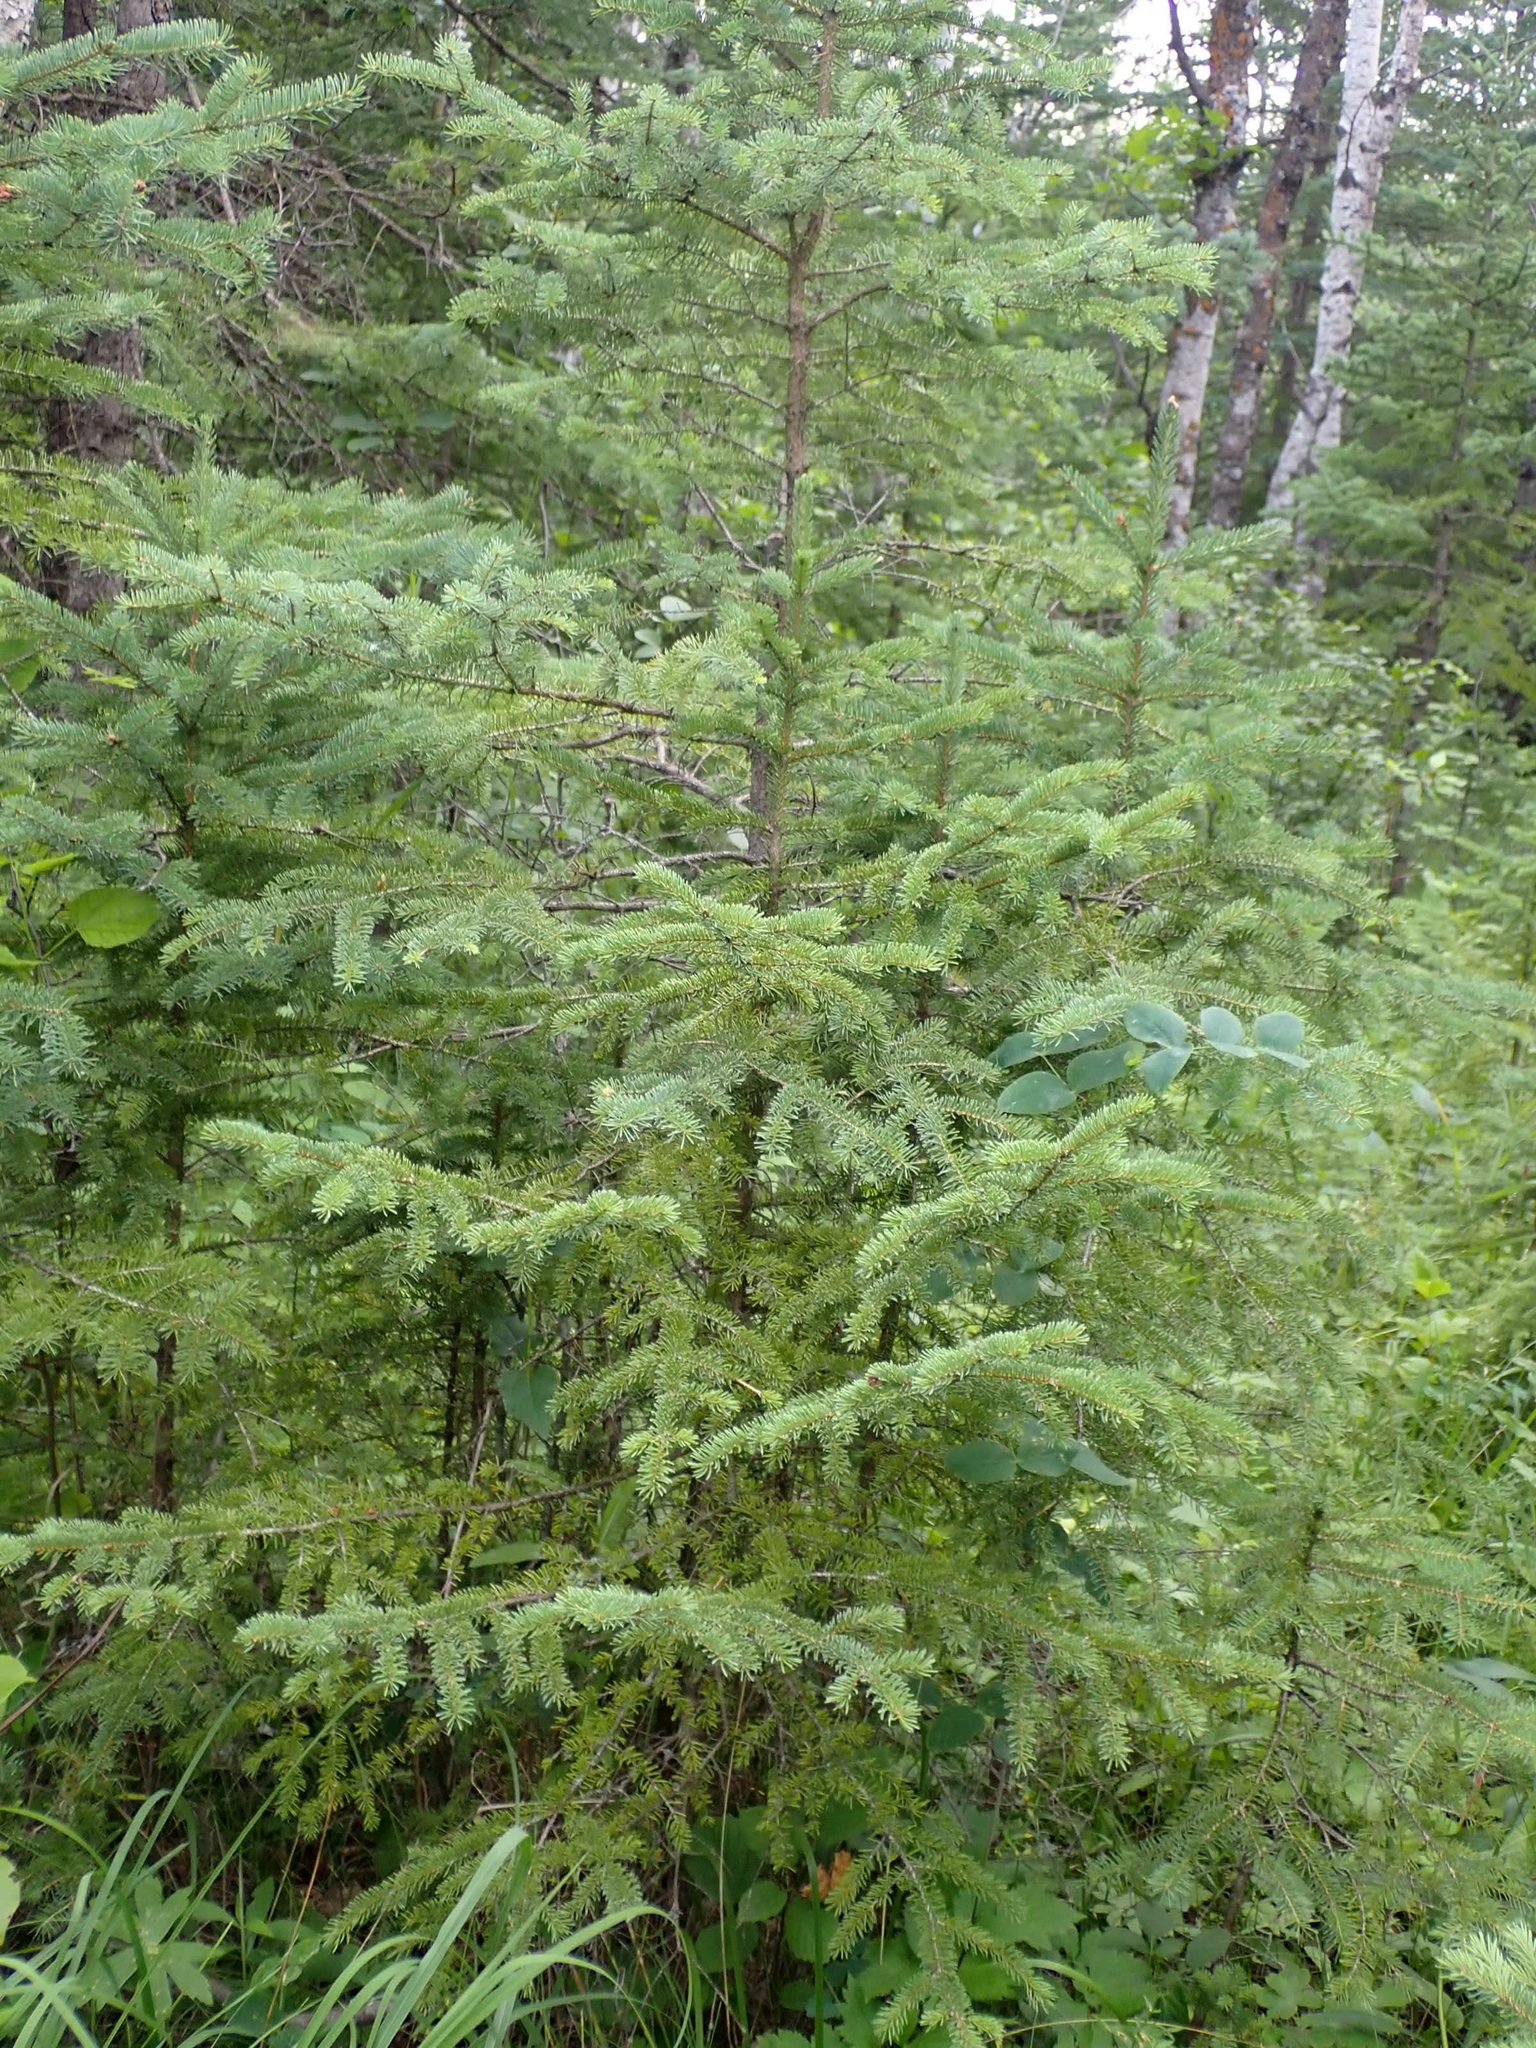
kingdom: Plantae
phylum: Tracheophyta
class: Pinopsida
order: Pinales
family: Pinaceae
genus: Picea
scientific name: Picea glauca
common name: White spruce
